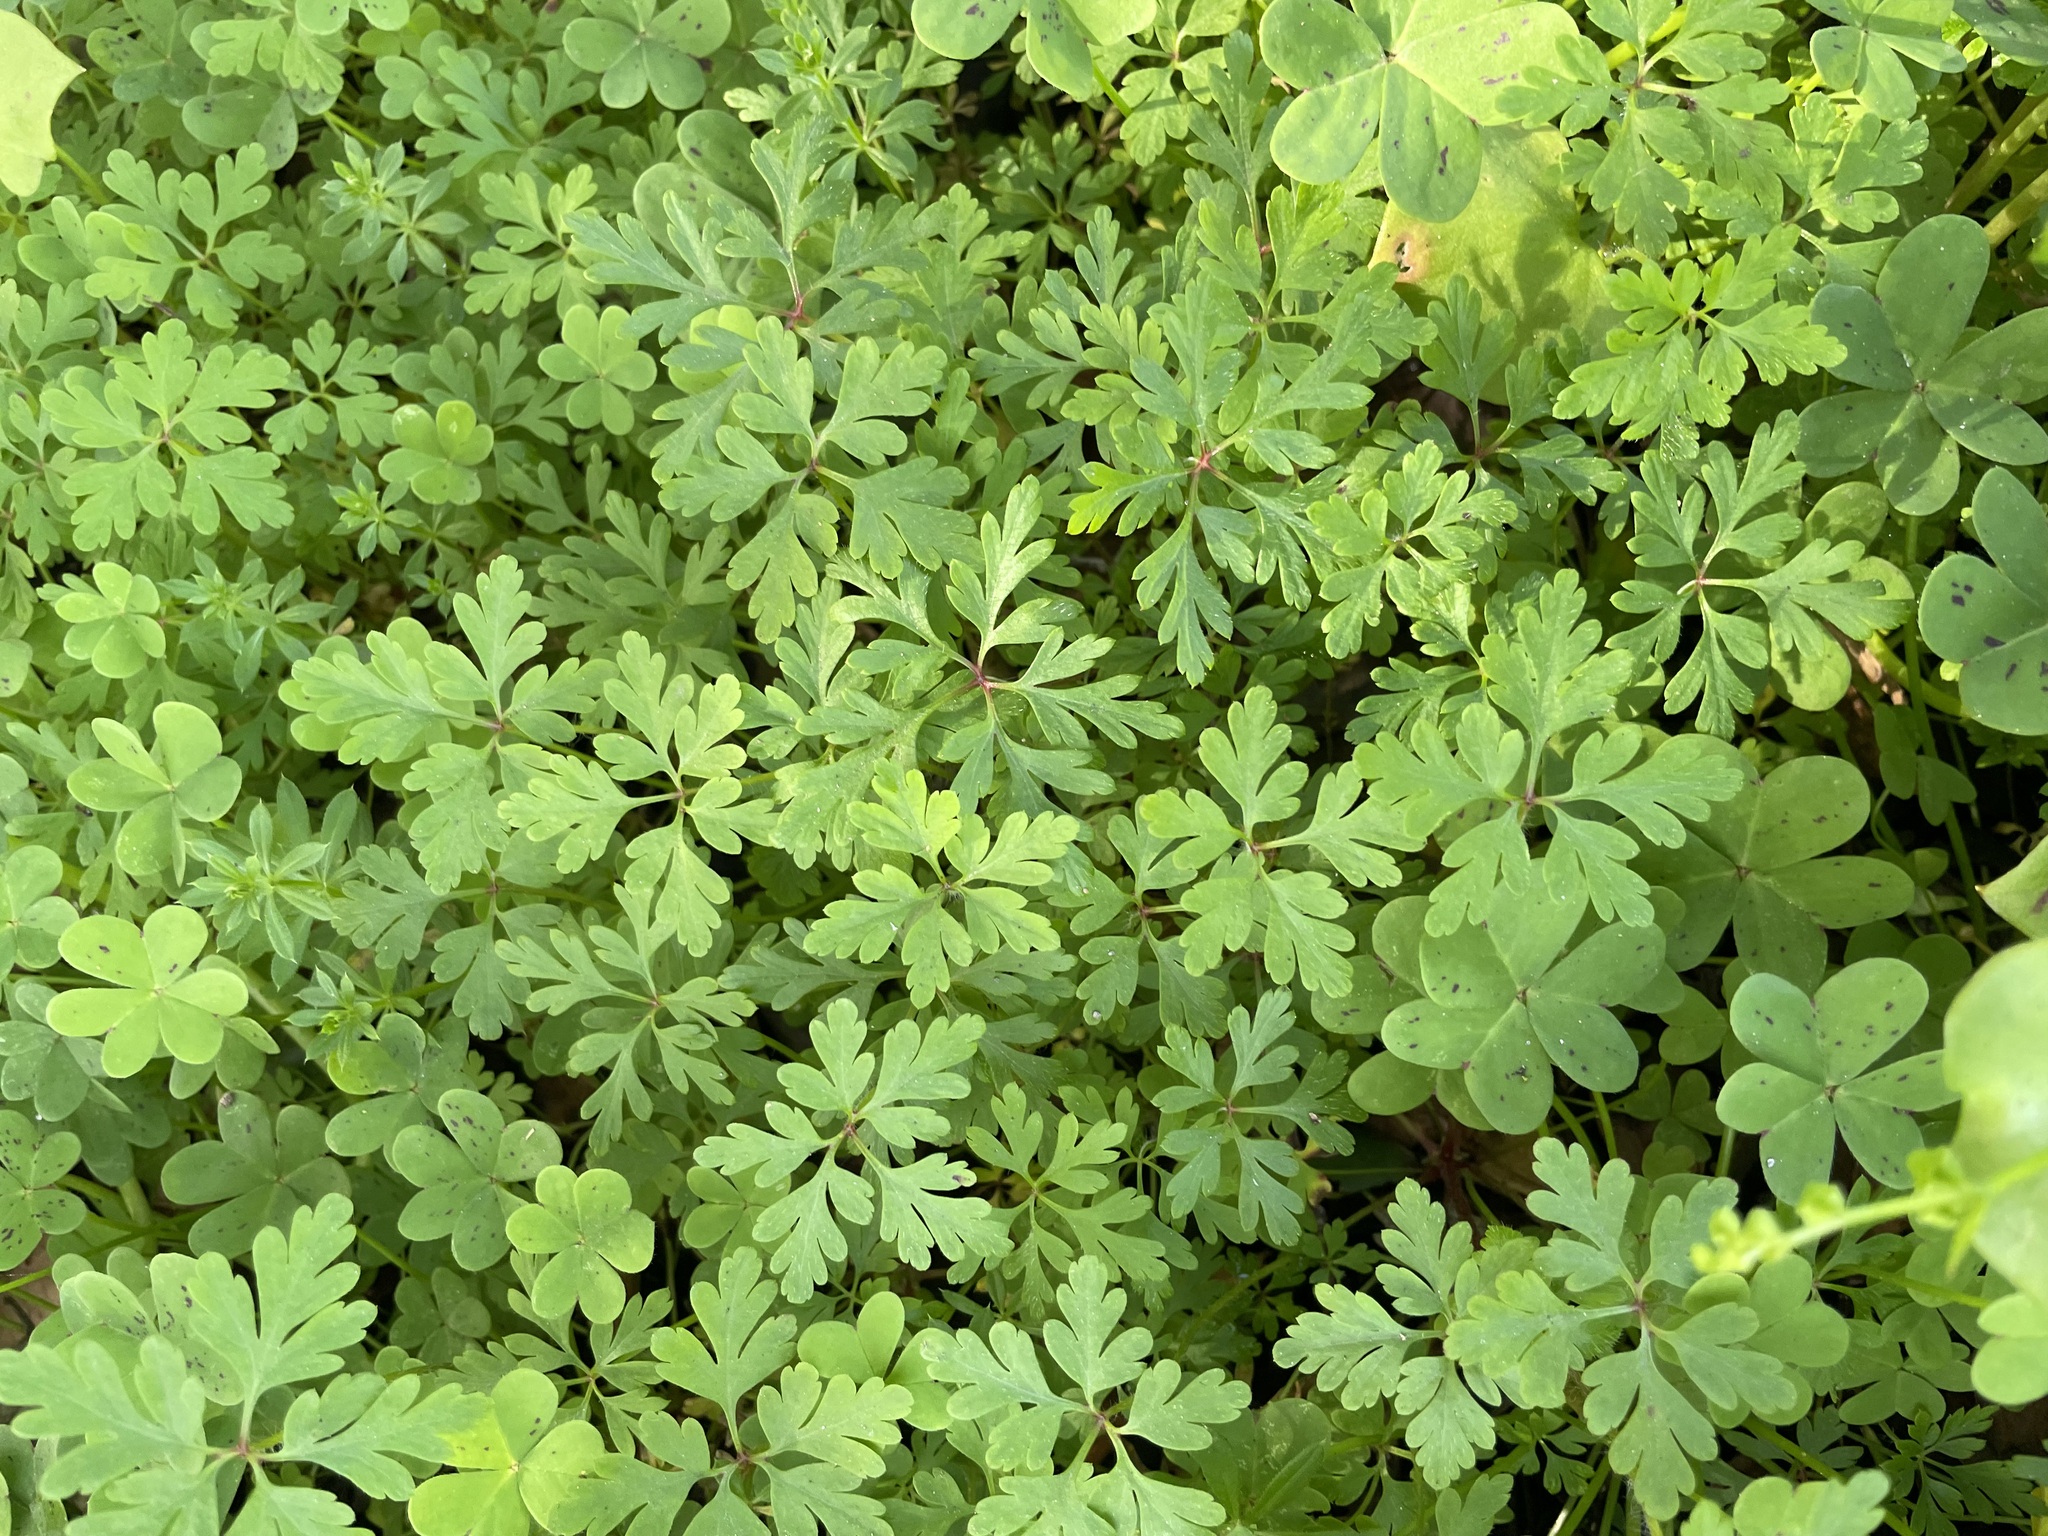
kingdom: Plantae
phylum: Tracheophyta
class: Magnoliopsida
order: Geraniales
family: Geraniaceae
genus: Geranium
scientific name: Geranium
